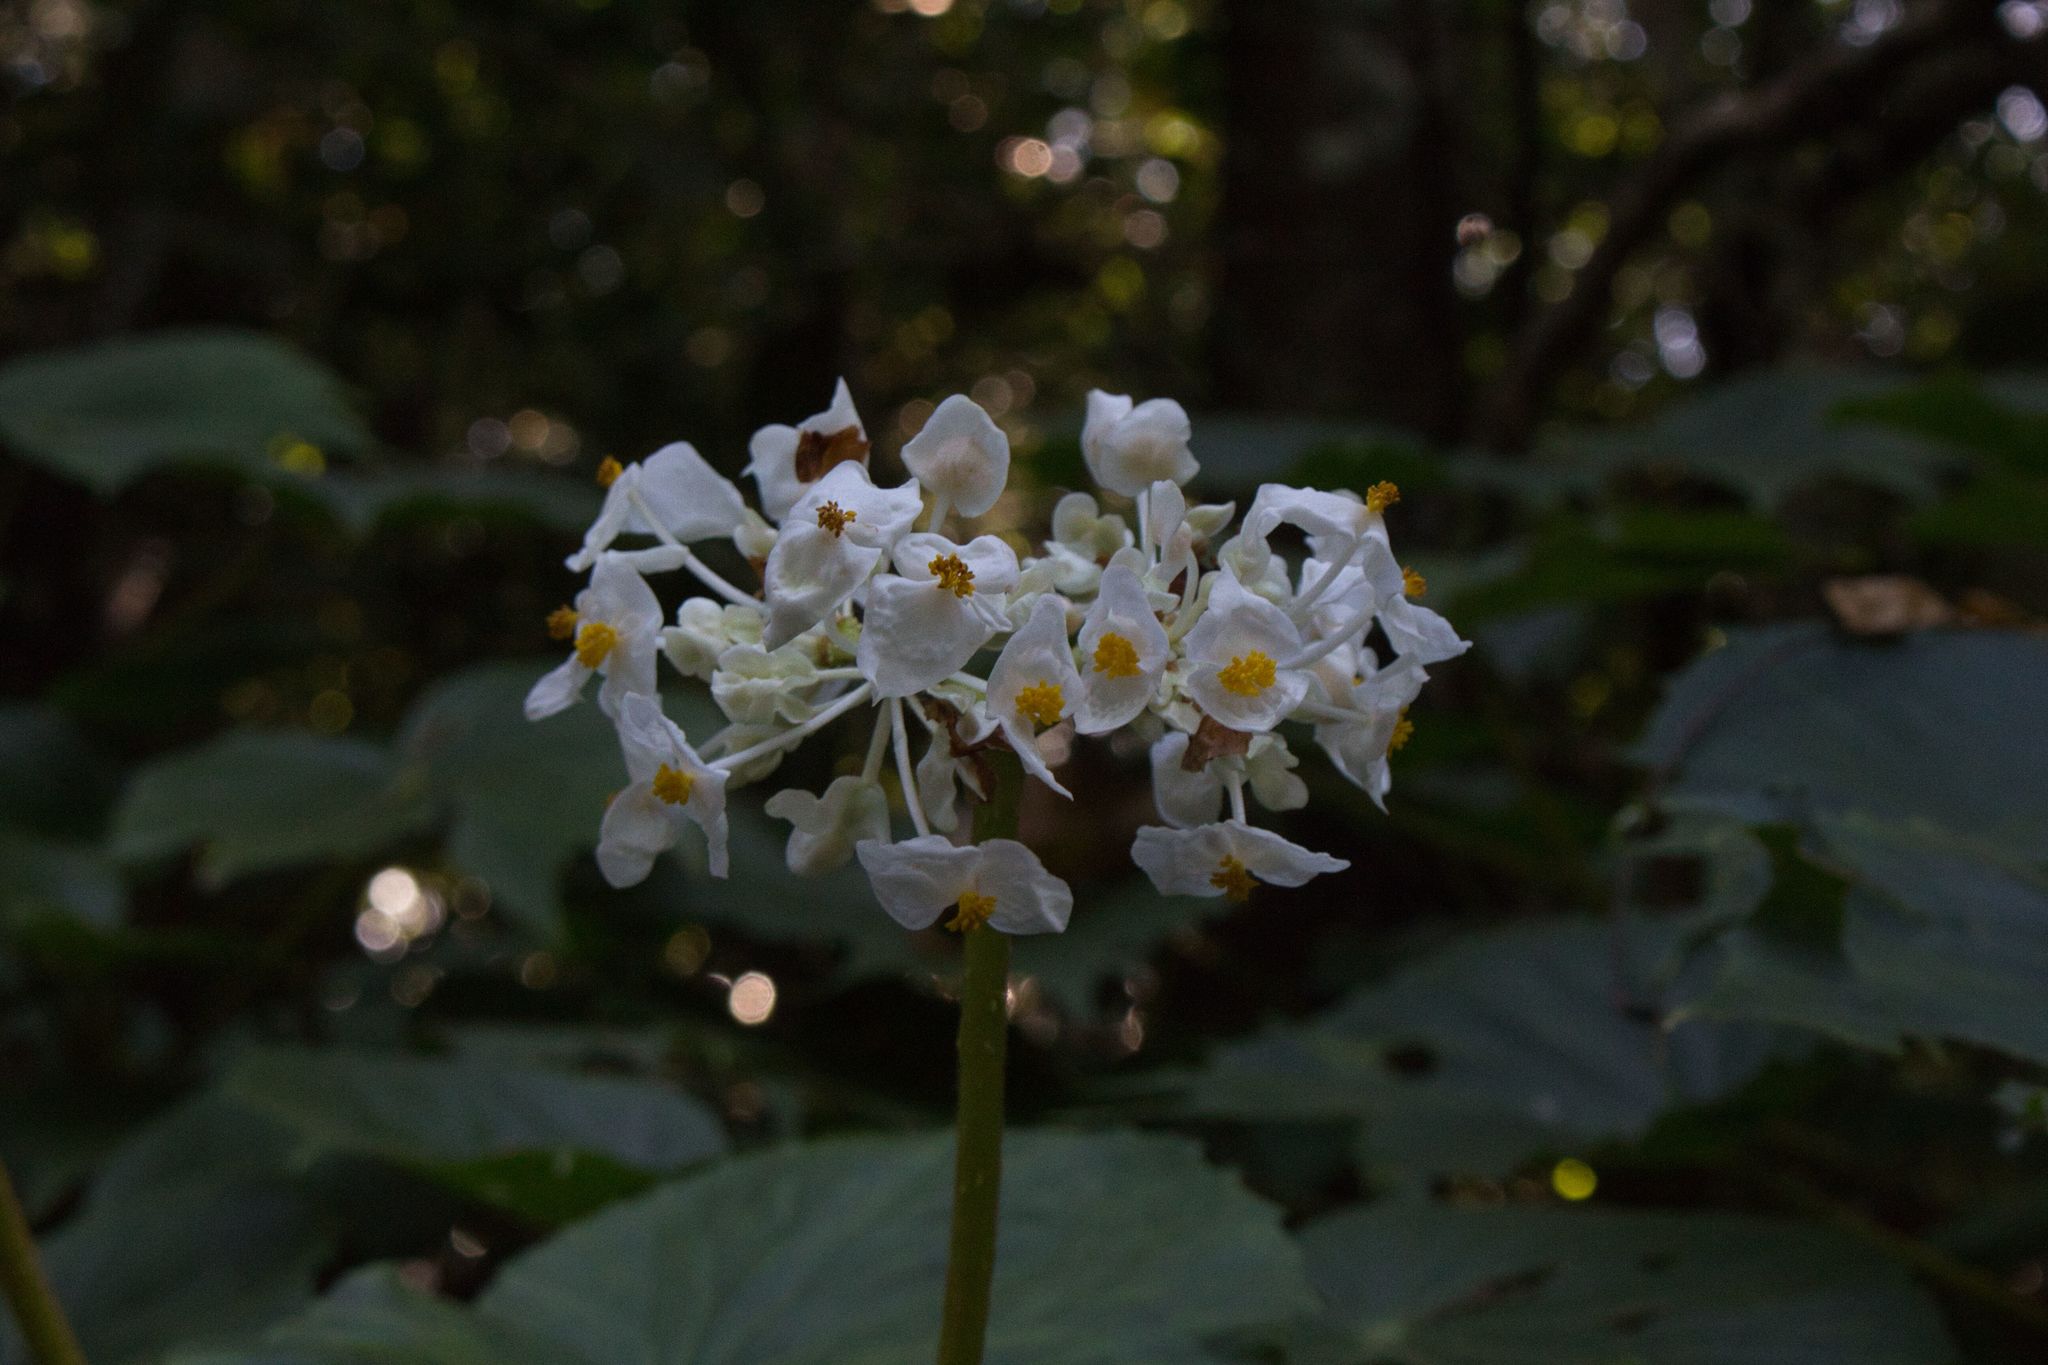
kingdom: Plantae
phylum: Tracheophyta
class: Magnoliopsida
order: Cucurbitales
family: Begoniaceae
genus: Begonia
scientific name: Begonia involucrata
